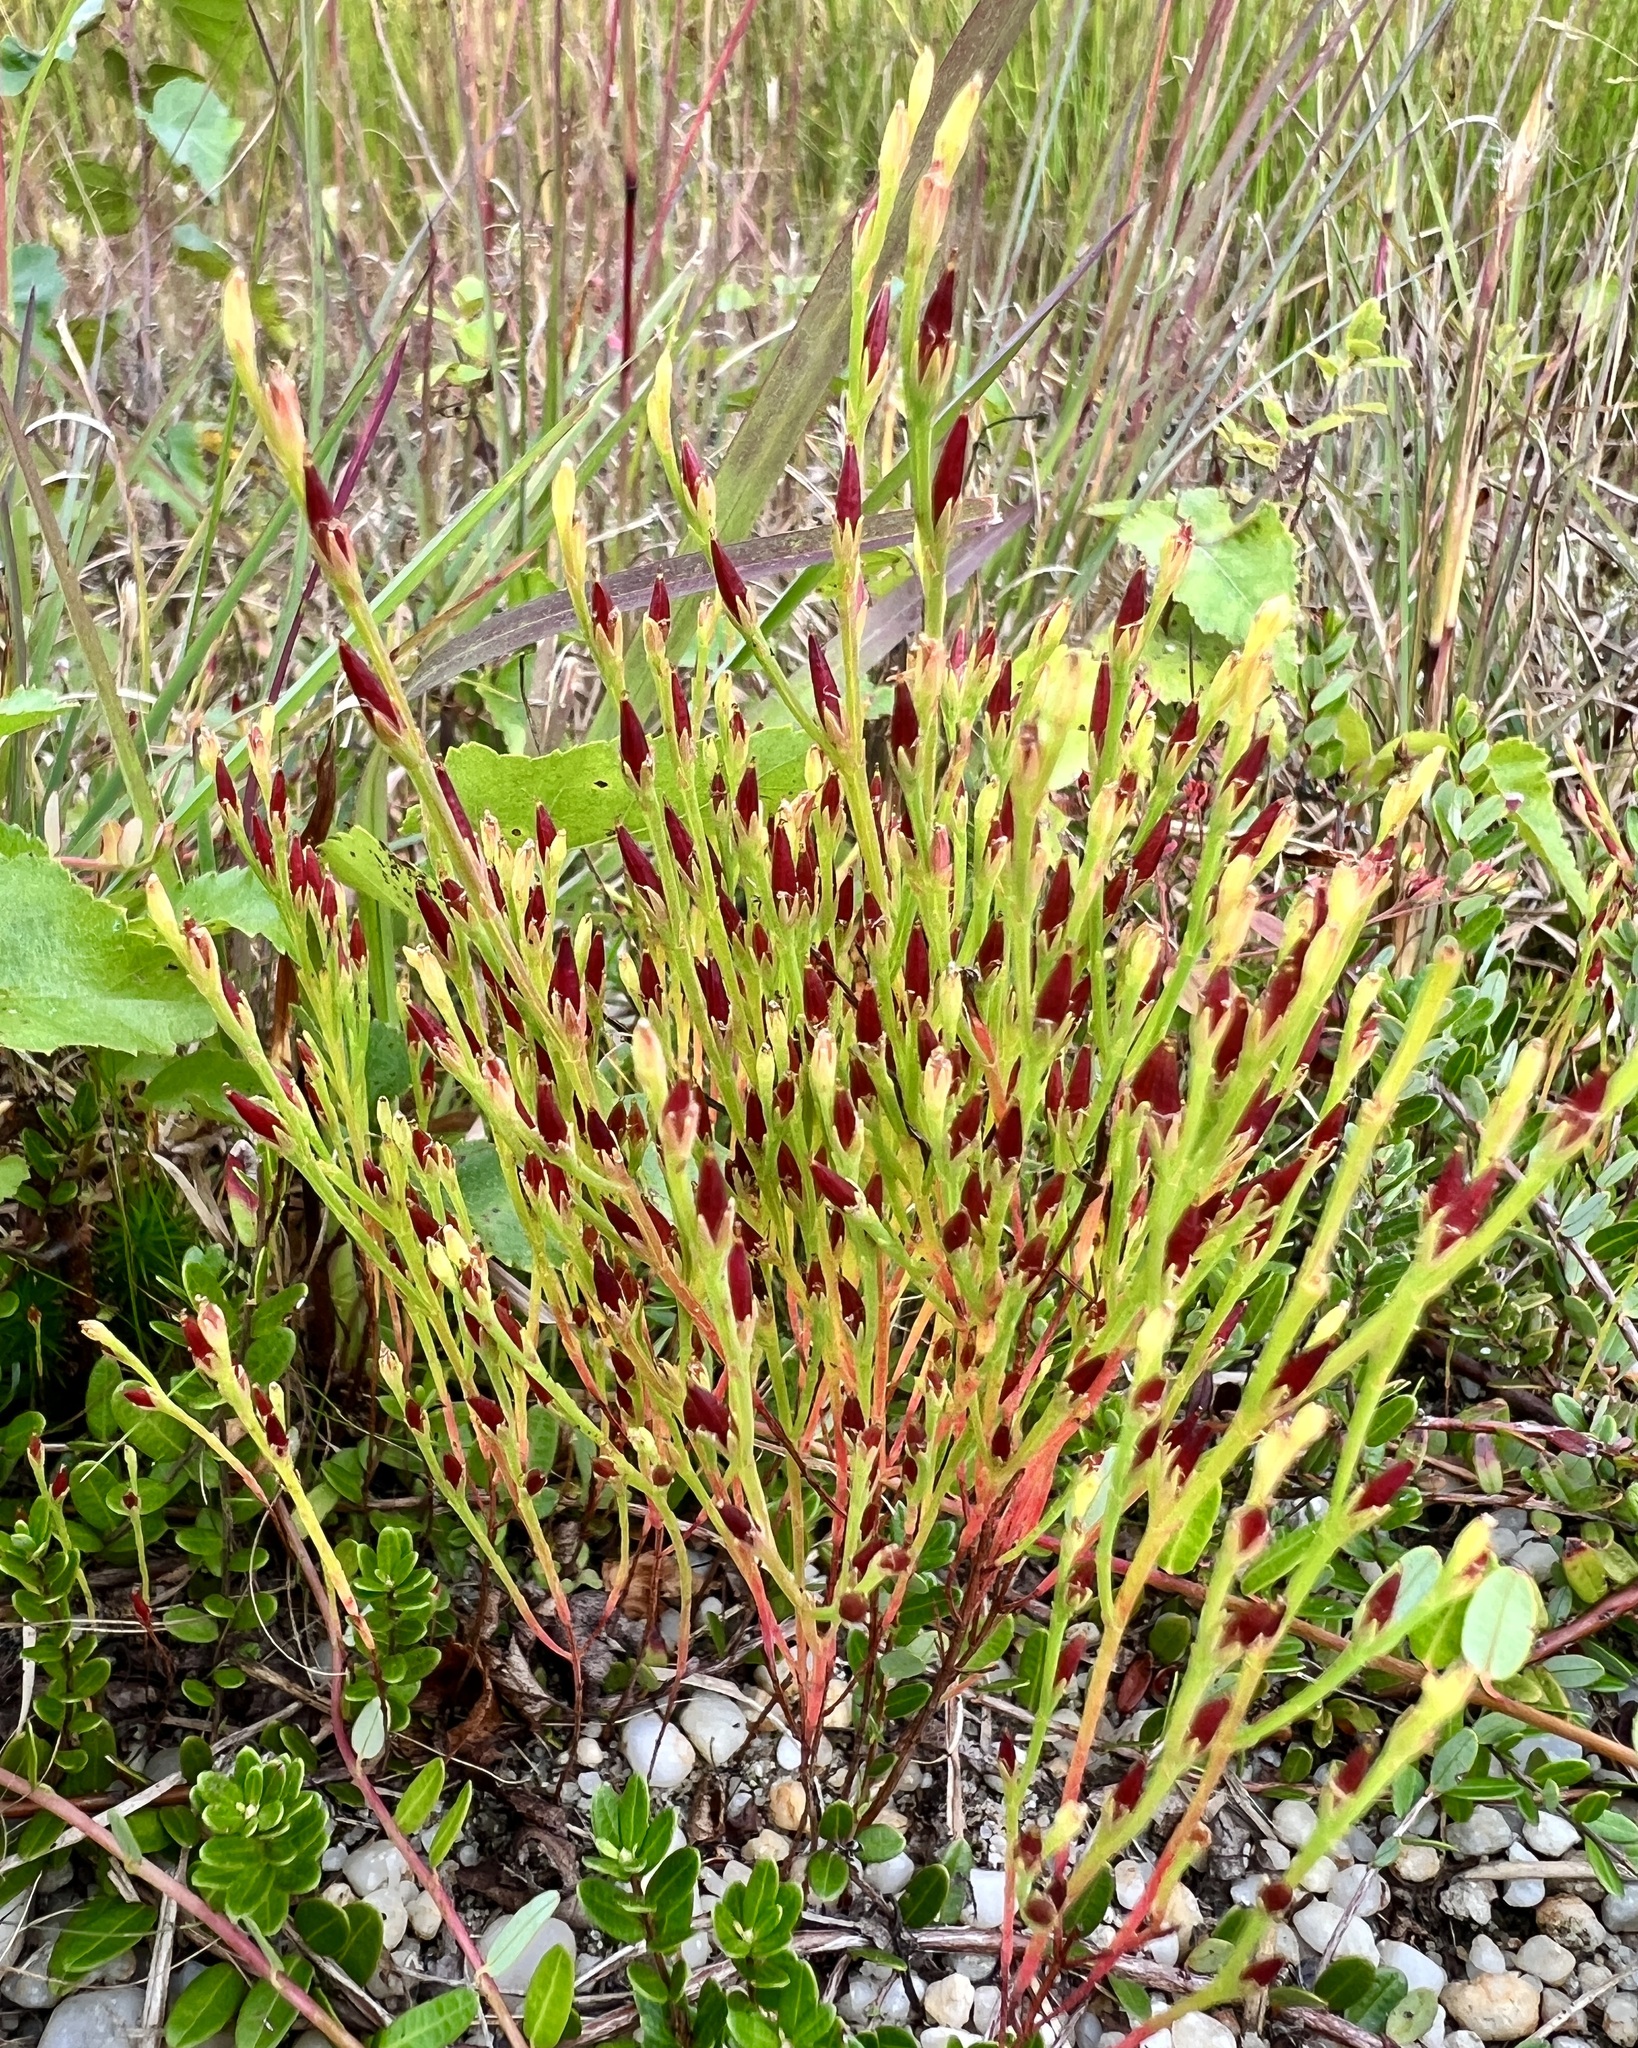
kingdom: Plantae
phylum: Tracheophyta
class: Magnoliopsida
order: Malpighiales
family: Hypericaceae
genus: Hypericum
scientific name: Hypericum gentianoides
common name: Gentian-leaved st. john's-wort
